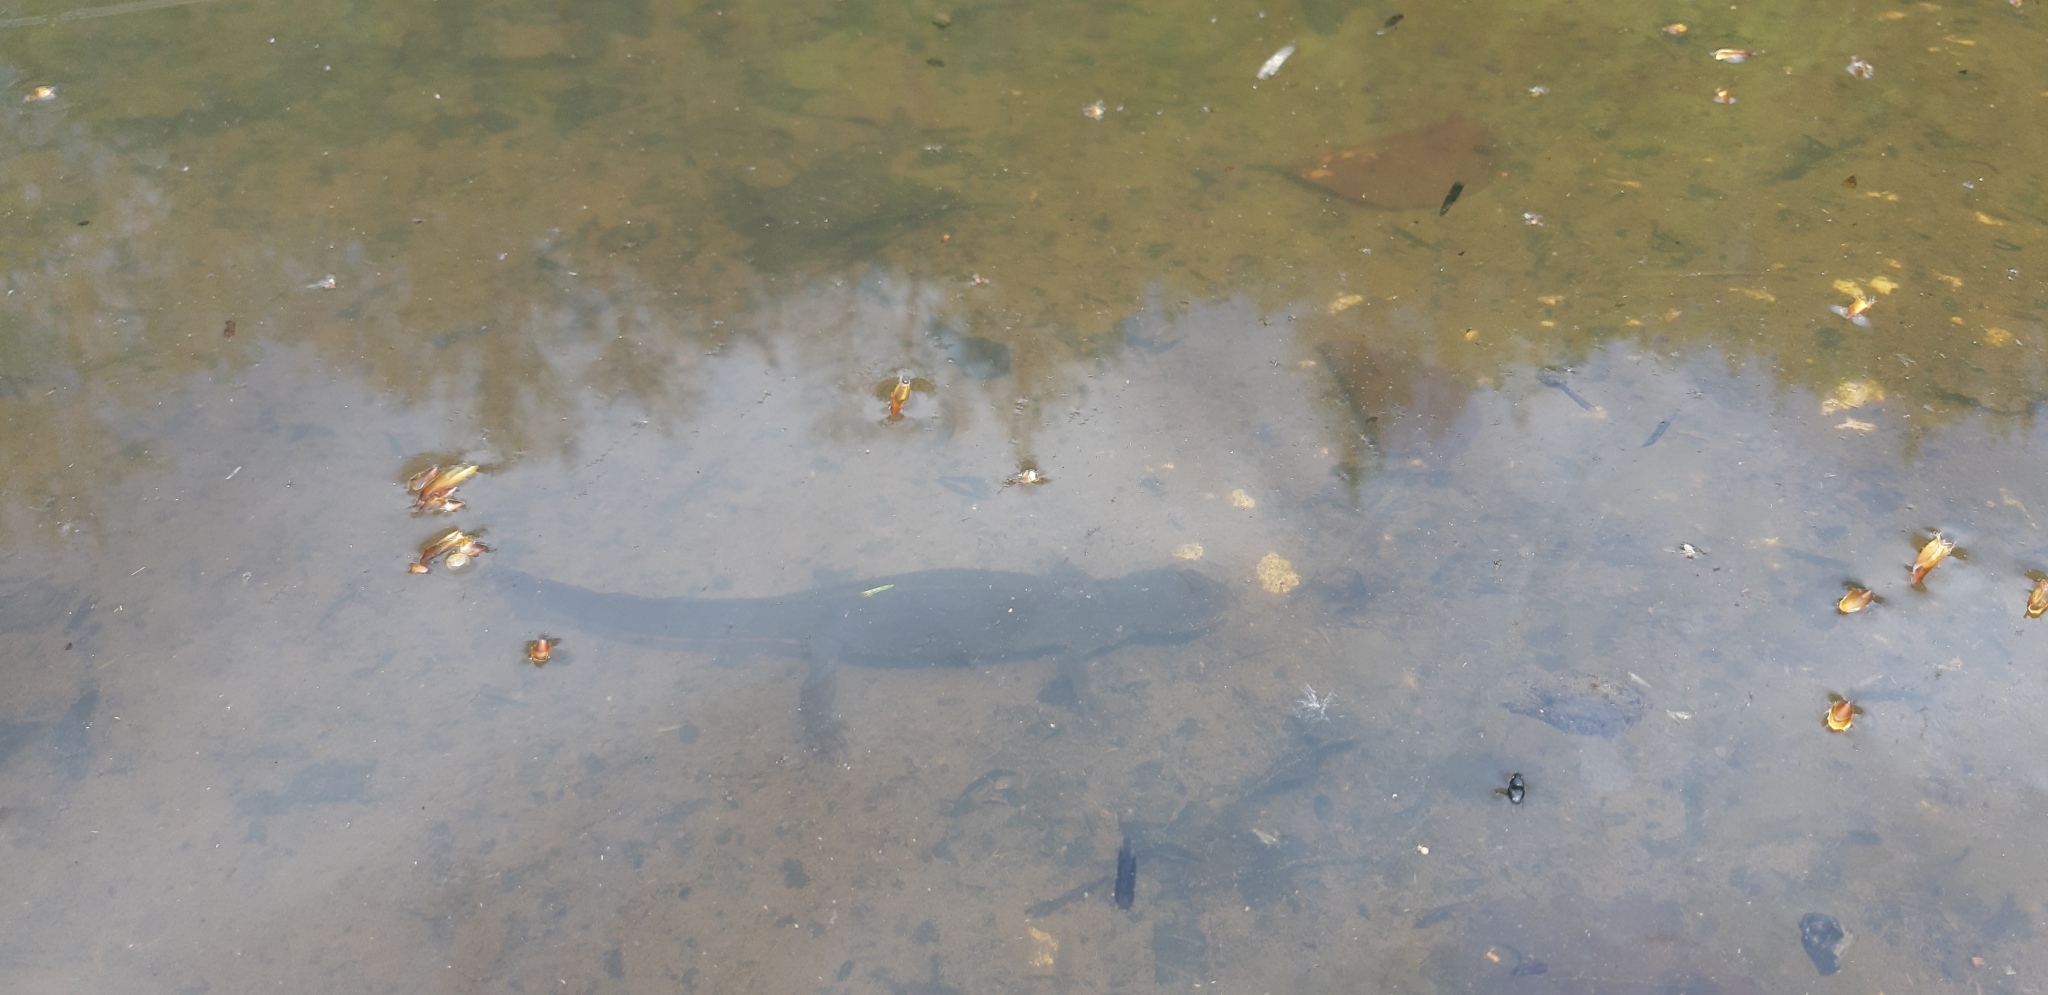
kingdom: Animalia
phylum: Chordata
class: Amphibia
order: Caudata
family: Salamandridae
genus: Triturus
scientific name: Triturus carnifex
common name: Italian crested newt
